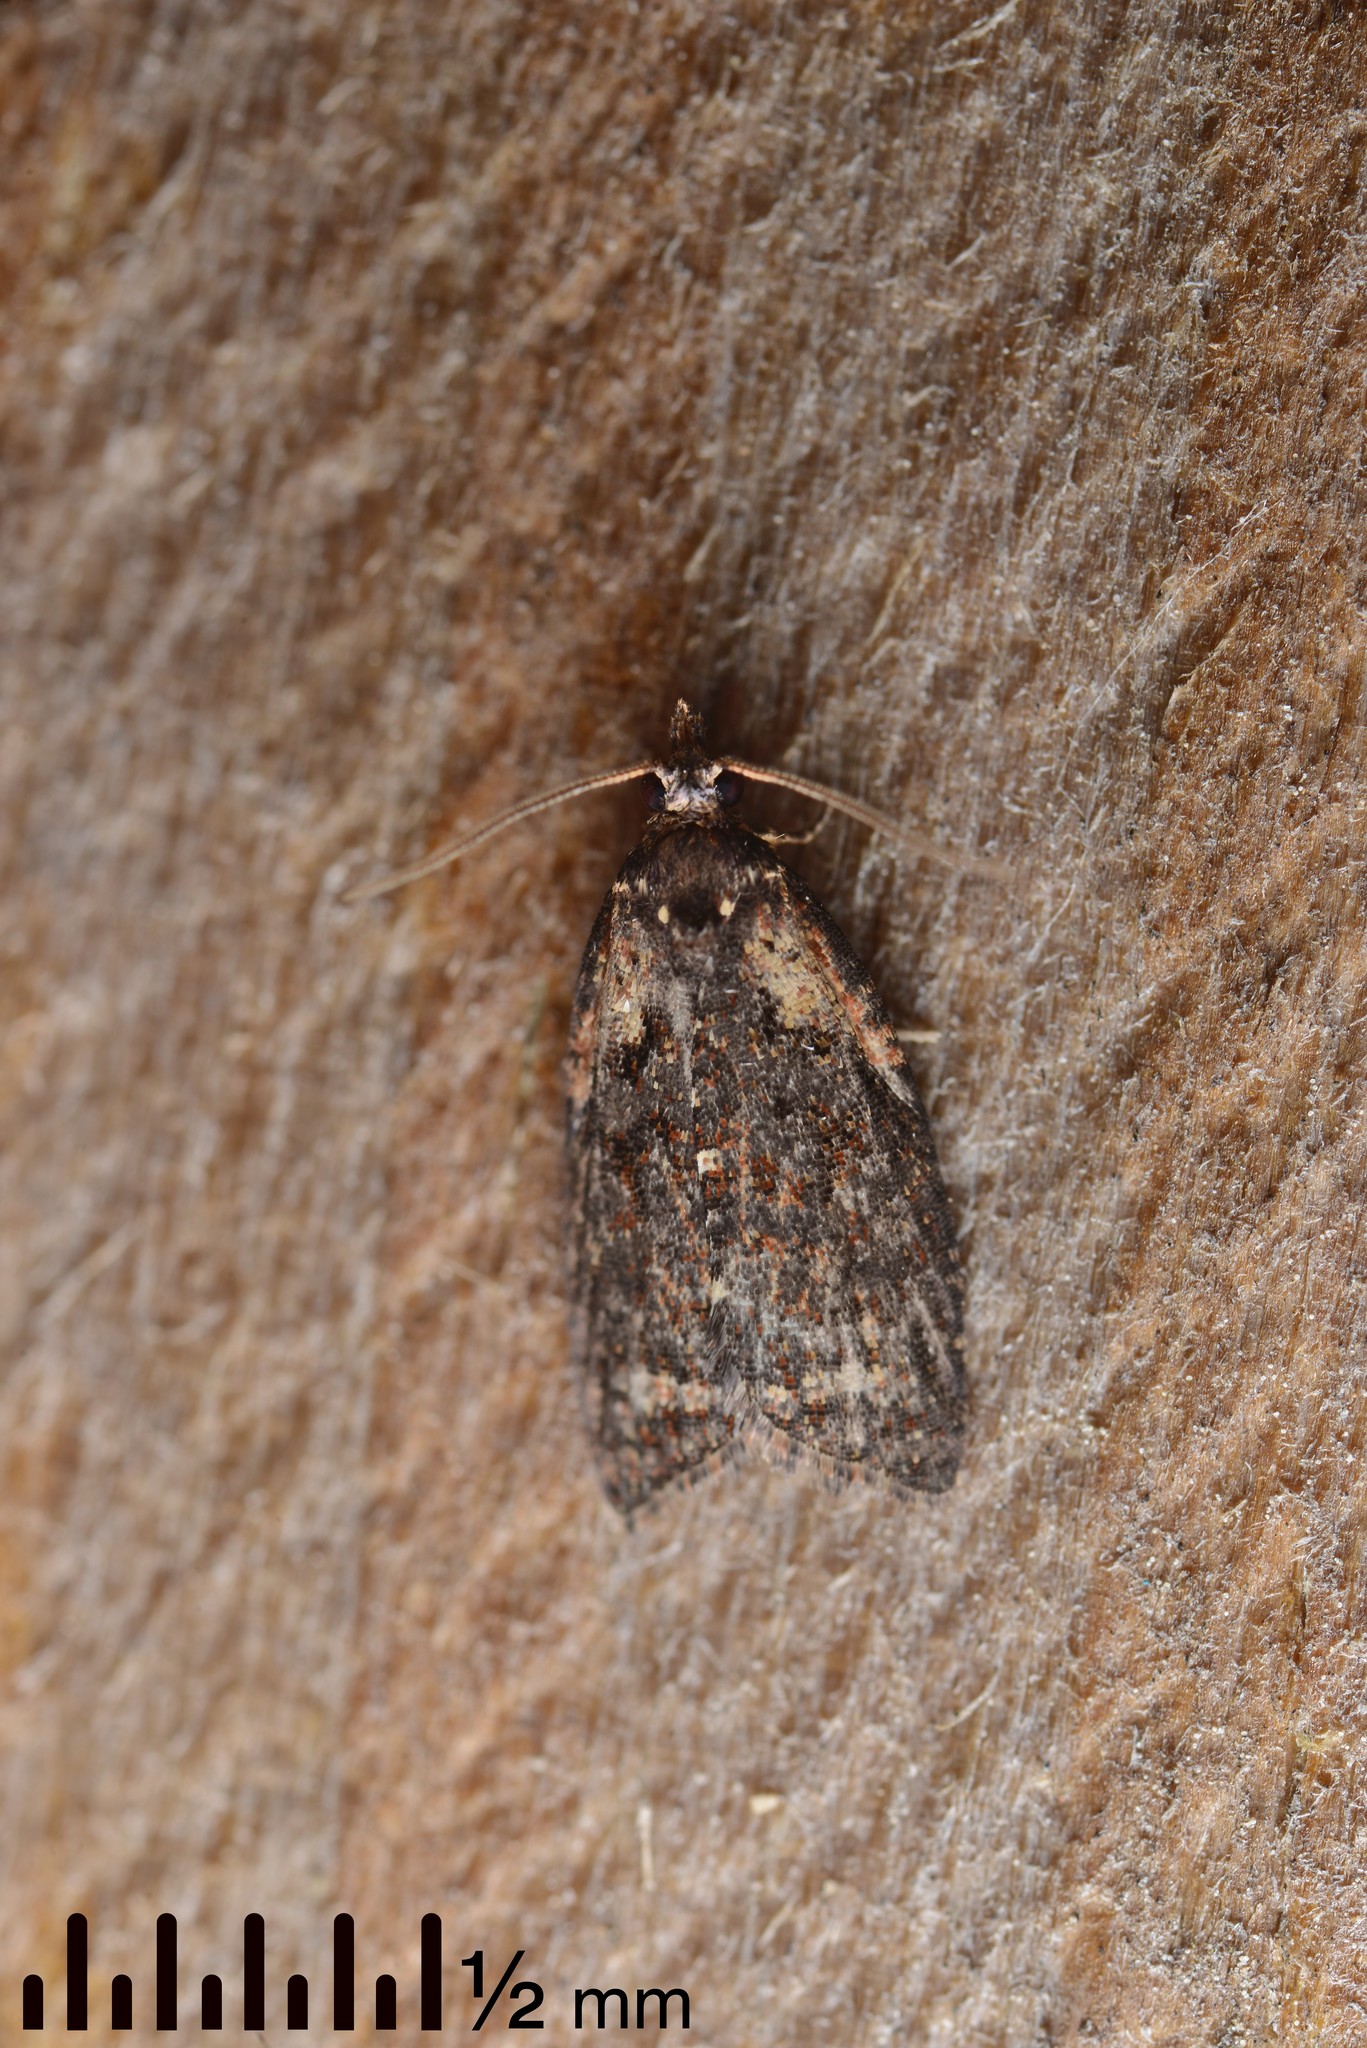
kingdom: Animalia
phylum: Arthropoda
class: Insecta
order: Lepidoptera
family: Tortricidae
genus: Capua
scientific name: Capua intractana
